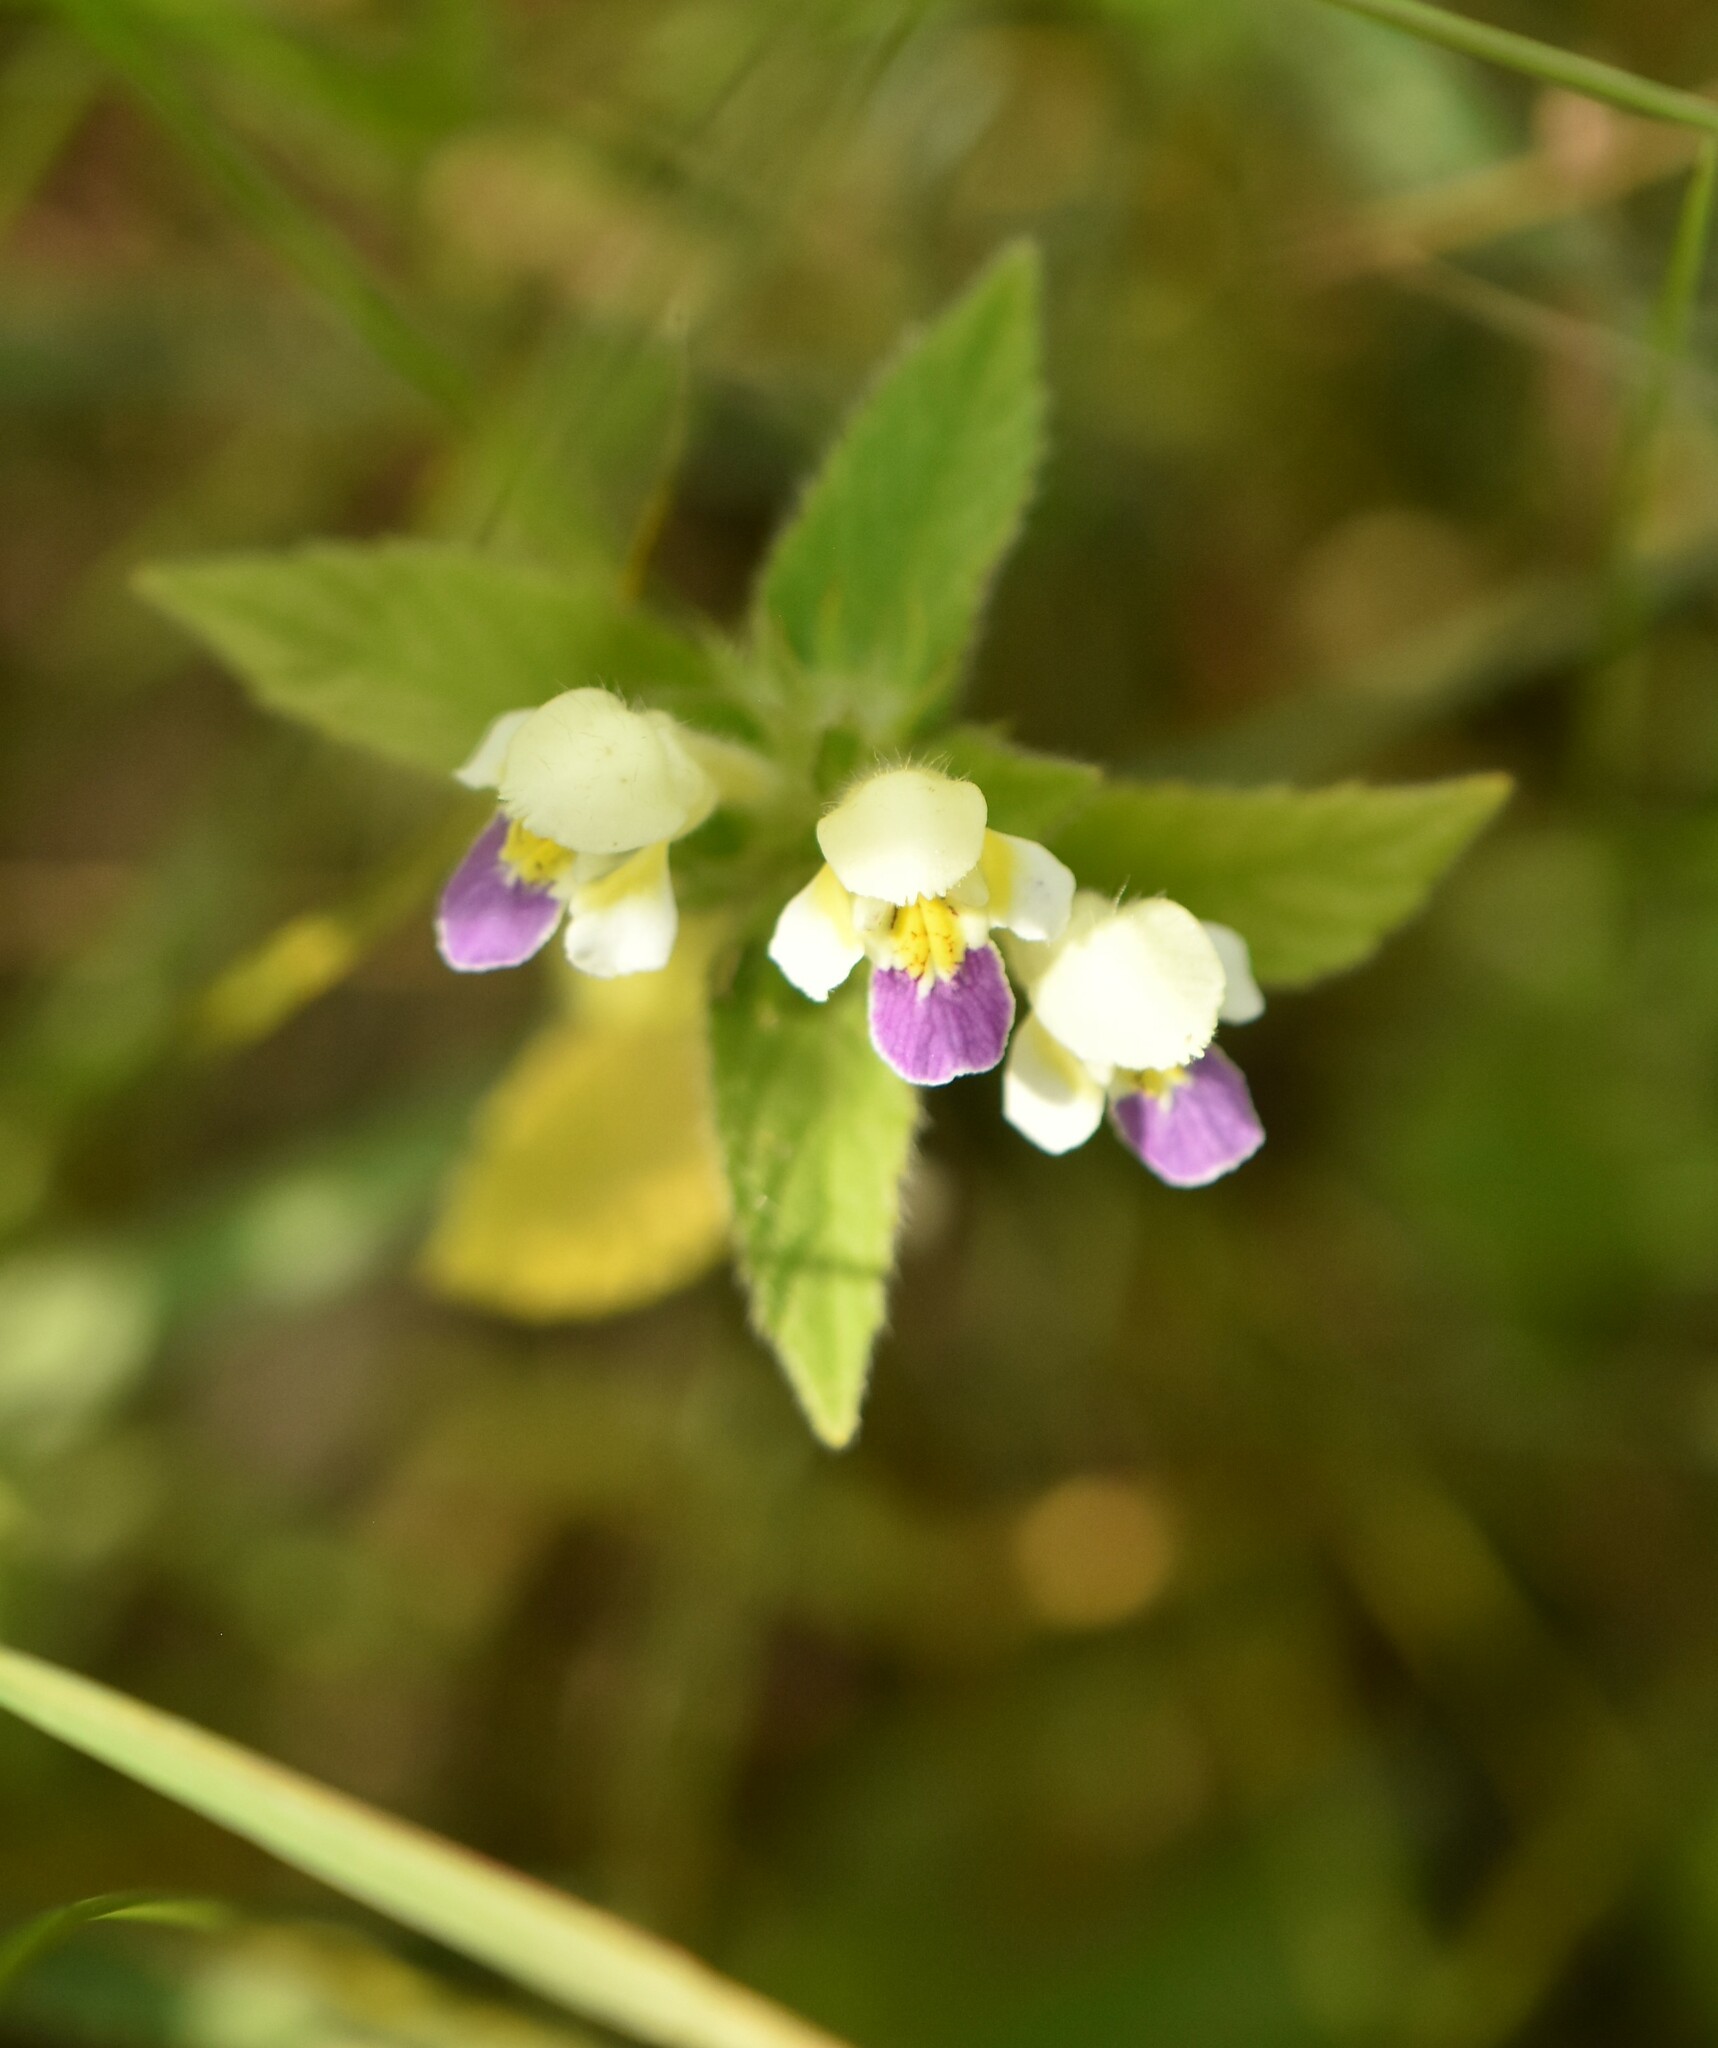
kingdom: Plantae
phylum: Tracheophyta
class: Magnoliopsida
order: Lamiales
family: Lamiaceae
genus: Galeopsis
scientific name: Galeopsis speciosa
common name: Large-flowered hemp-nettle
